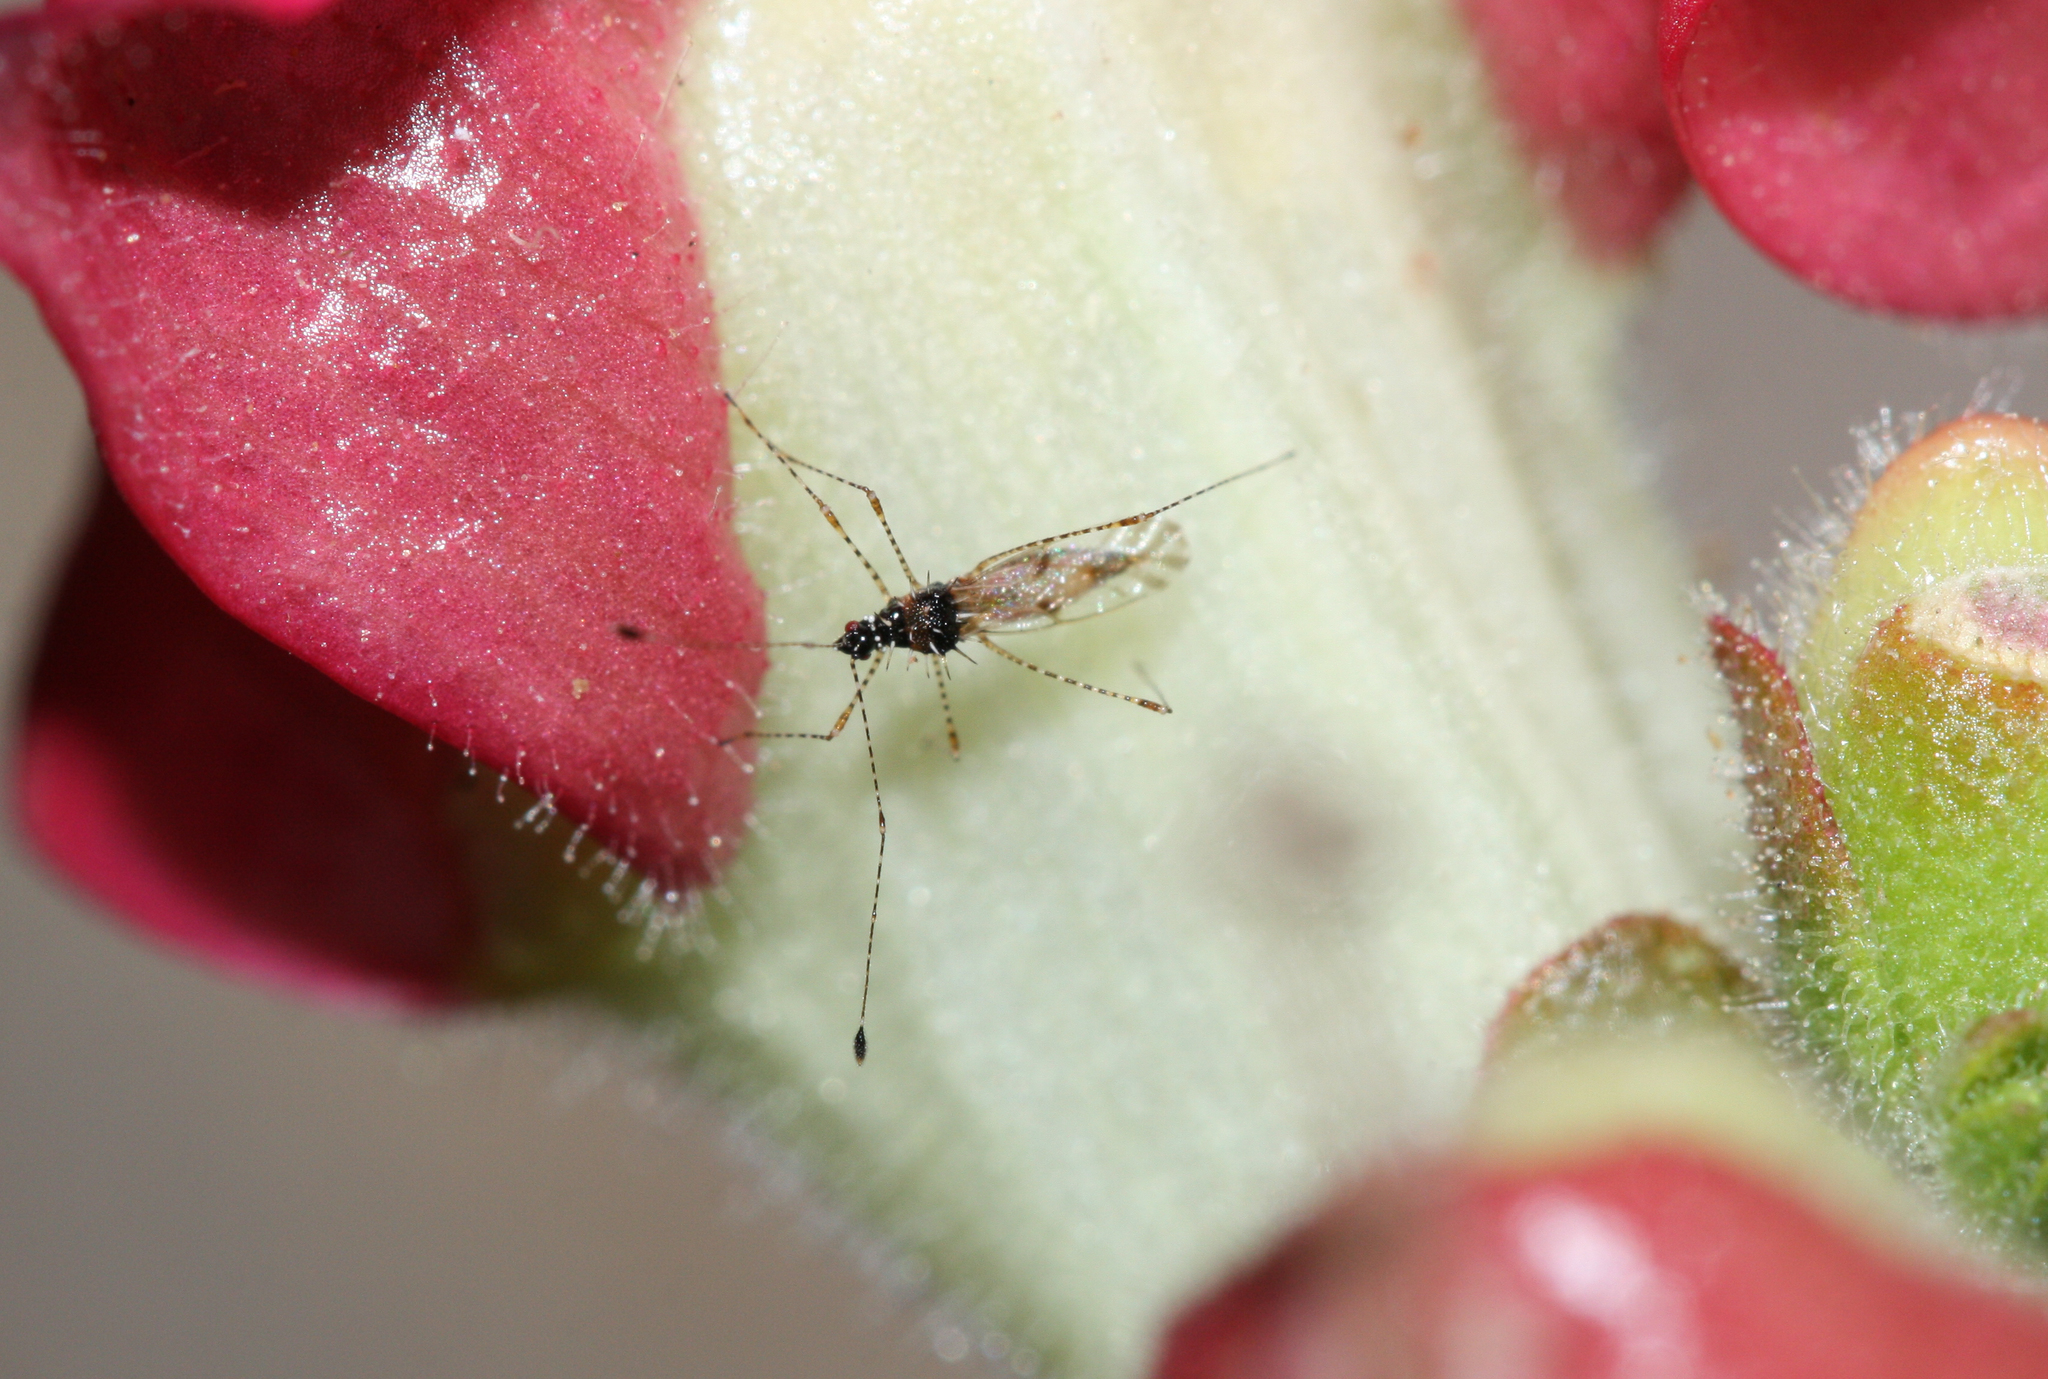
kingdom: Animalia
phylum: Arthropoda
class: Insecta
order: Hemiptera
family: Berytidae
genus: Pronotacantha
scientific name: Pronotacantha annulata
